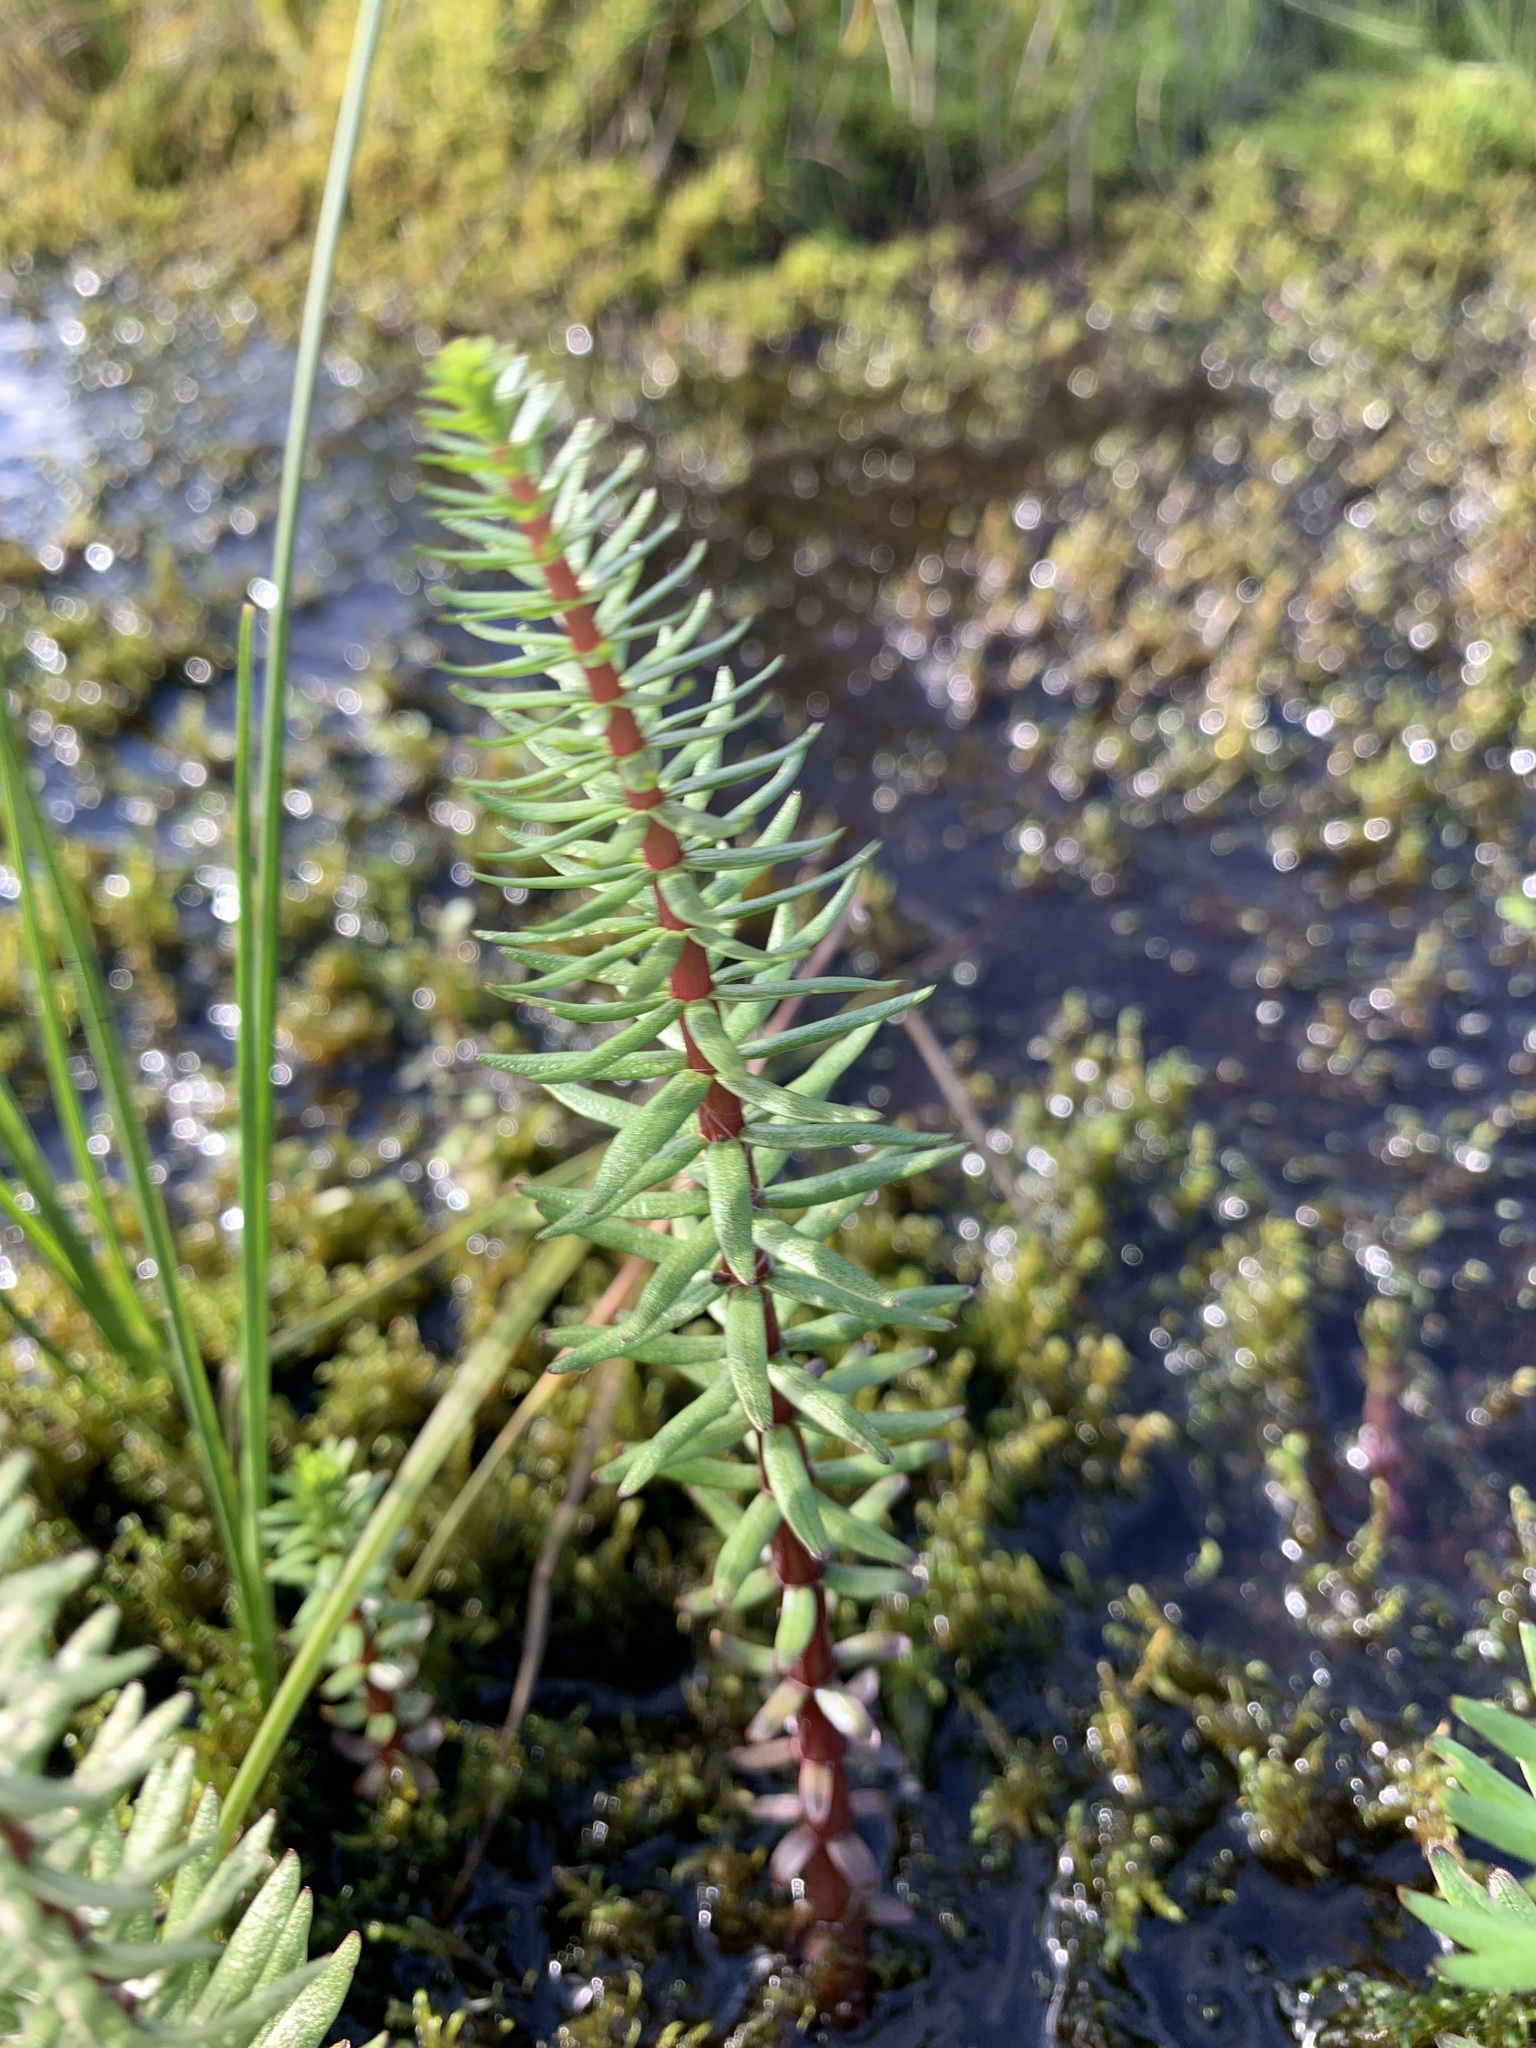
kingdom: Plantae
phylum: Tracheophyta
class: Magnoliopsida
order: Lamiales
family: Plantaginaceae
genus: Hippuris
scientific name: Hippuris lanceolata
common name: Lance-leaved mare's-tail
